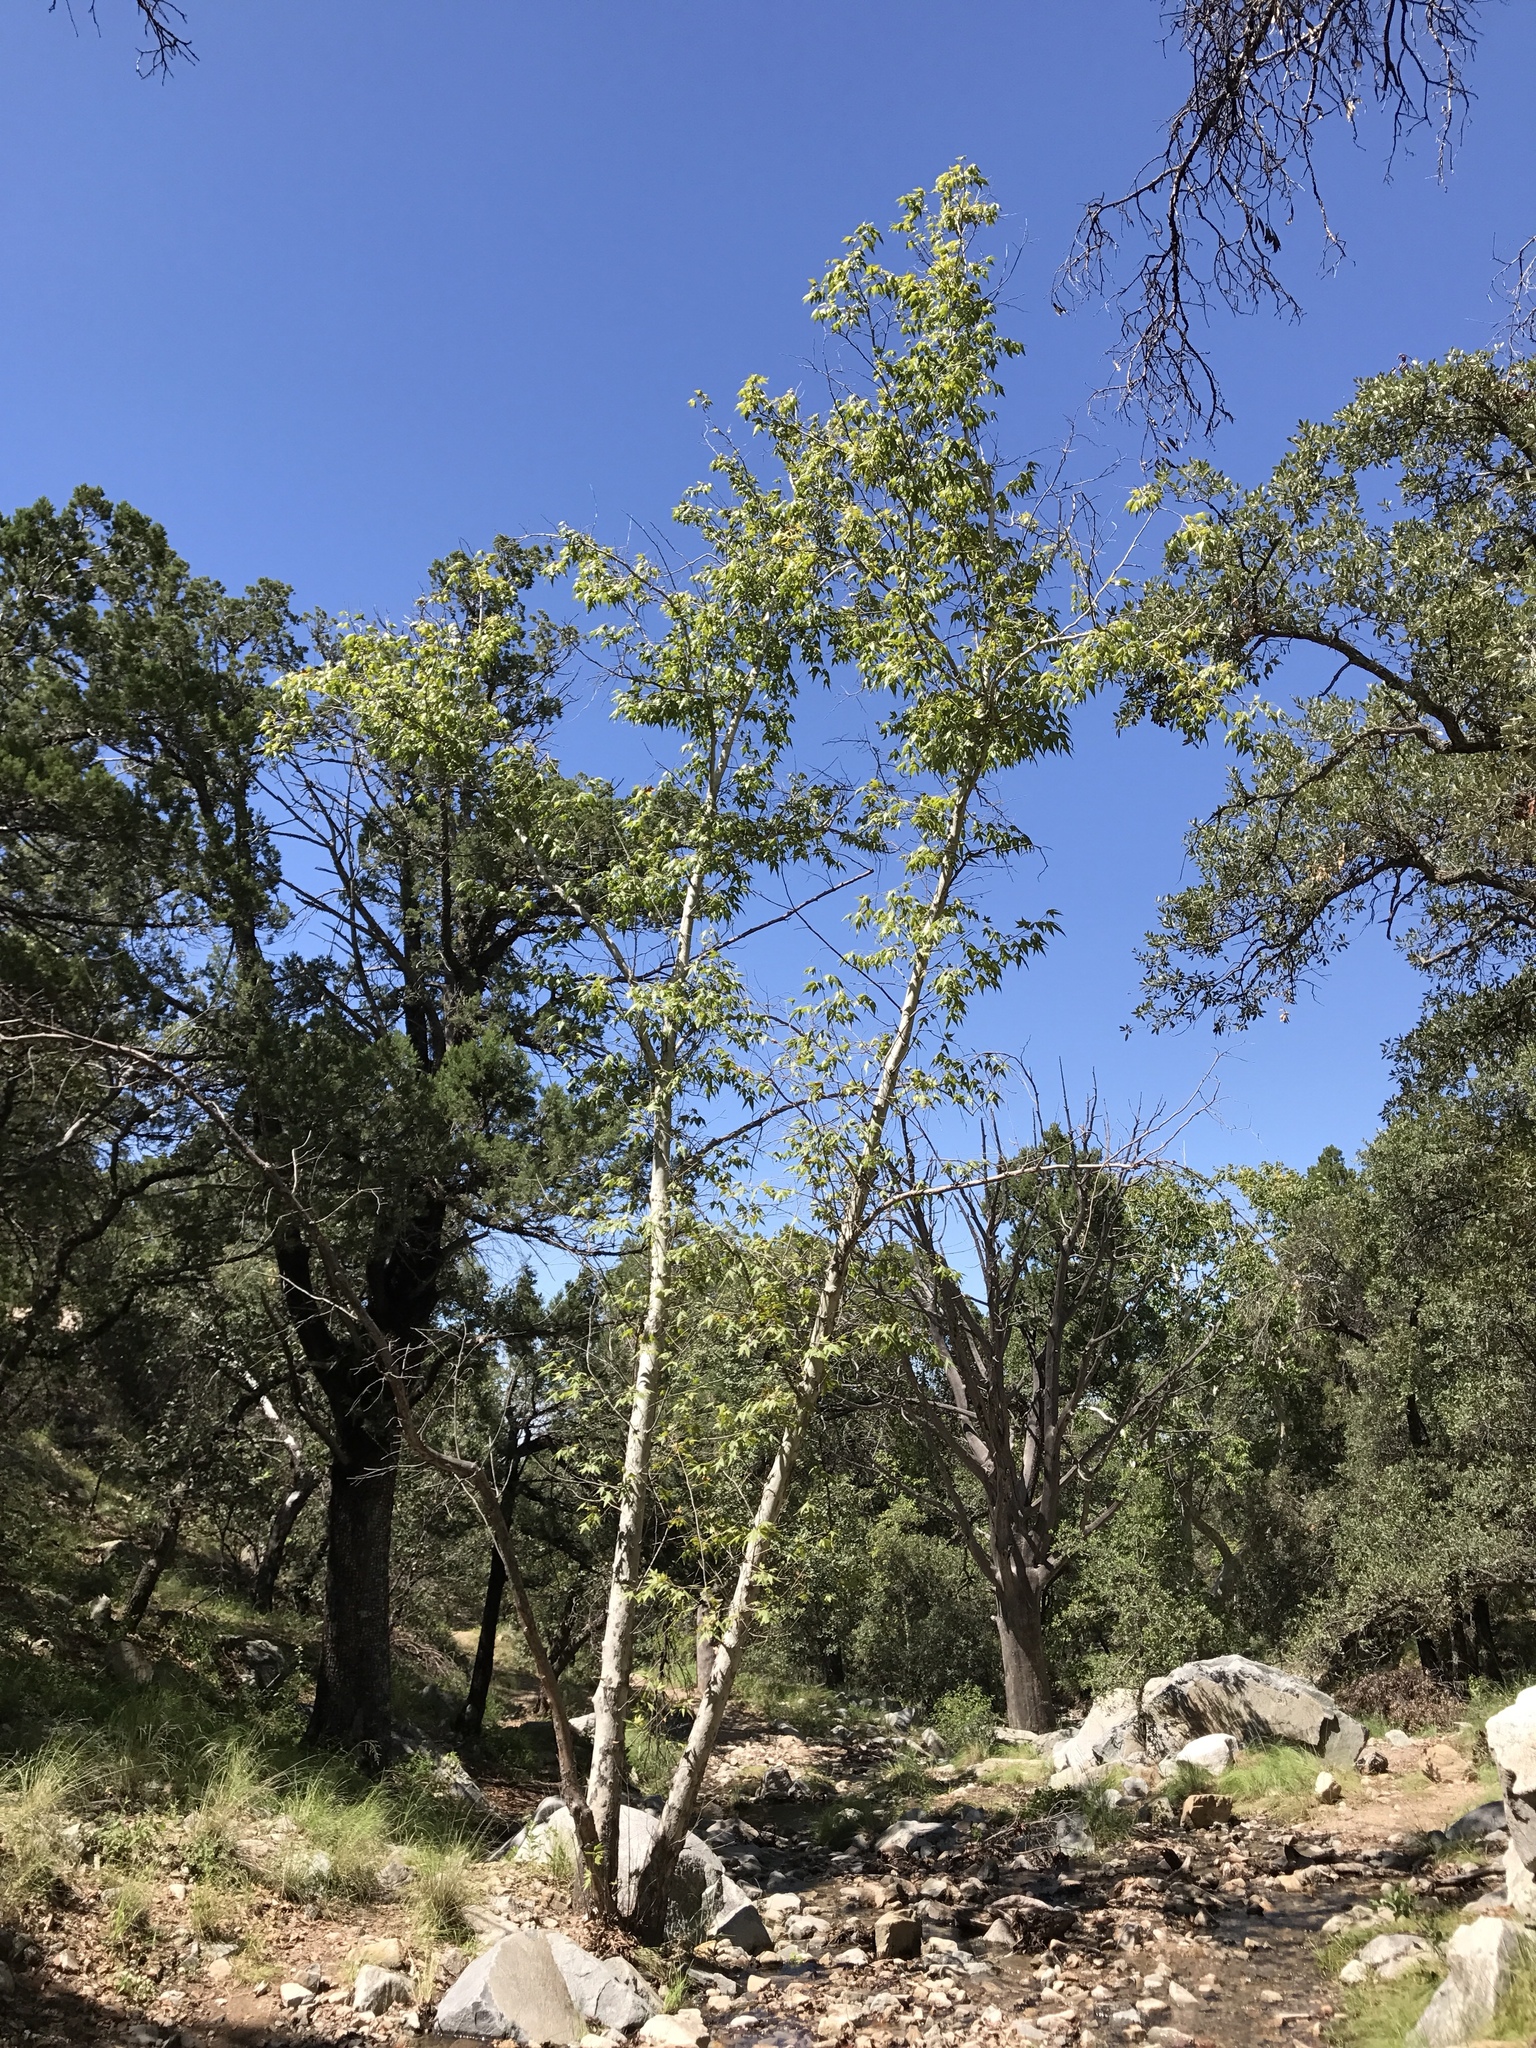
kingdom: Plantae
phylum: Tracheophyta
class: Magnoliopsida
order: Proteales
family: Platanaceae
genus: Platanus
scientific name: Platanus wrightii
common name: Arizona sycamore
